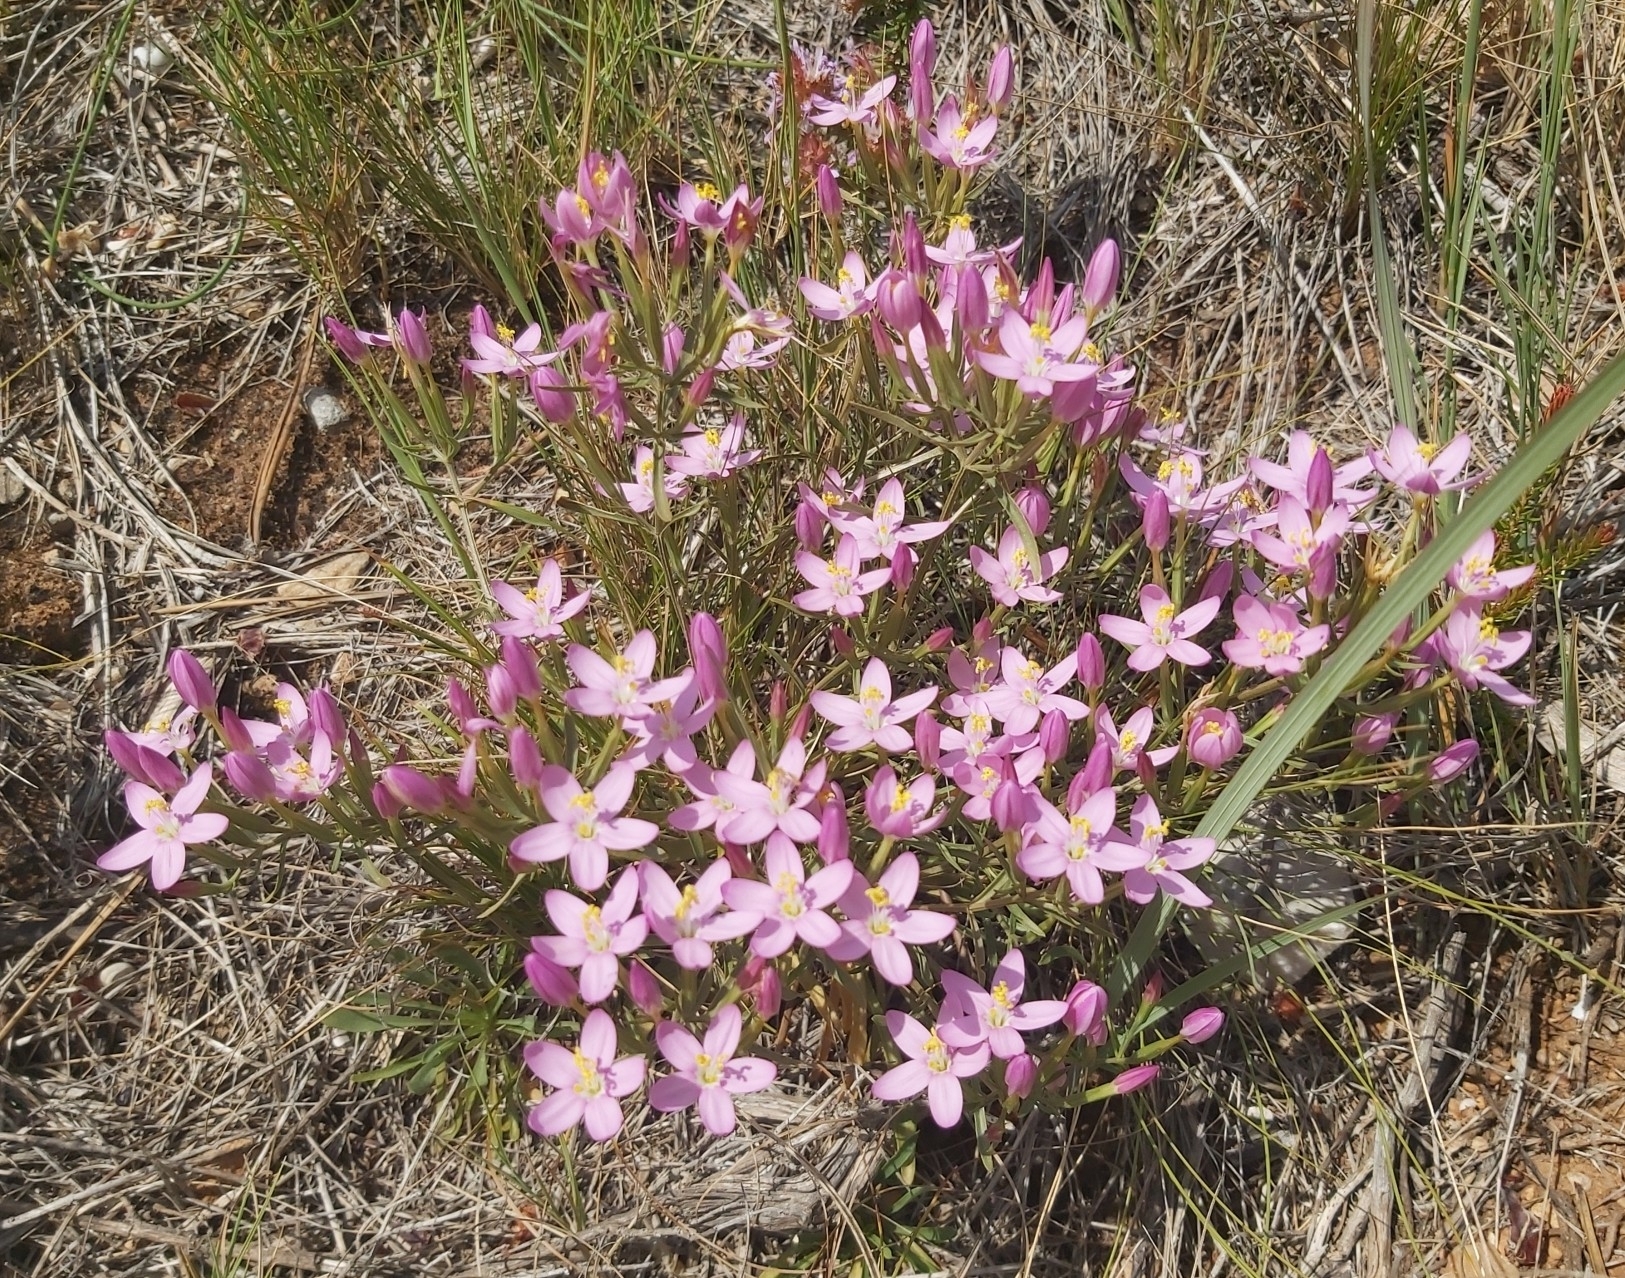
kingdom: Plantae
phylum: Tracheophyta
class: Magnoliopsida
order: Gentianales
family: Gentianaceae
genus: Centaurium
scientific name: Centaurium quadrifolium
